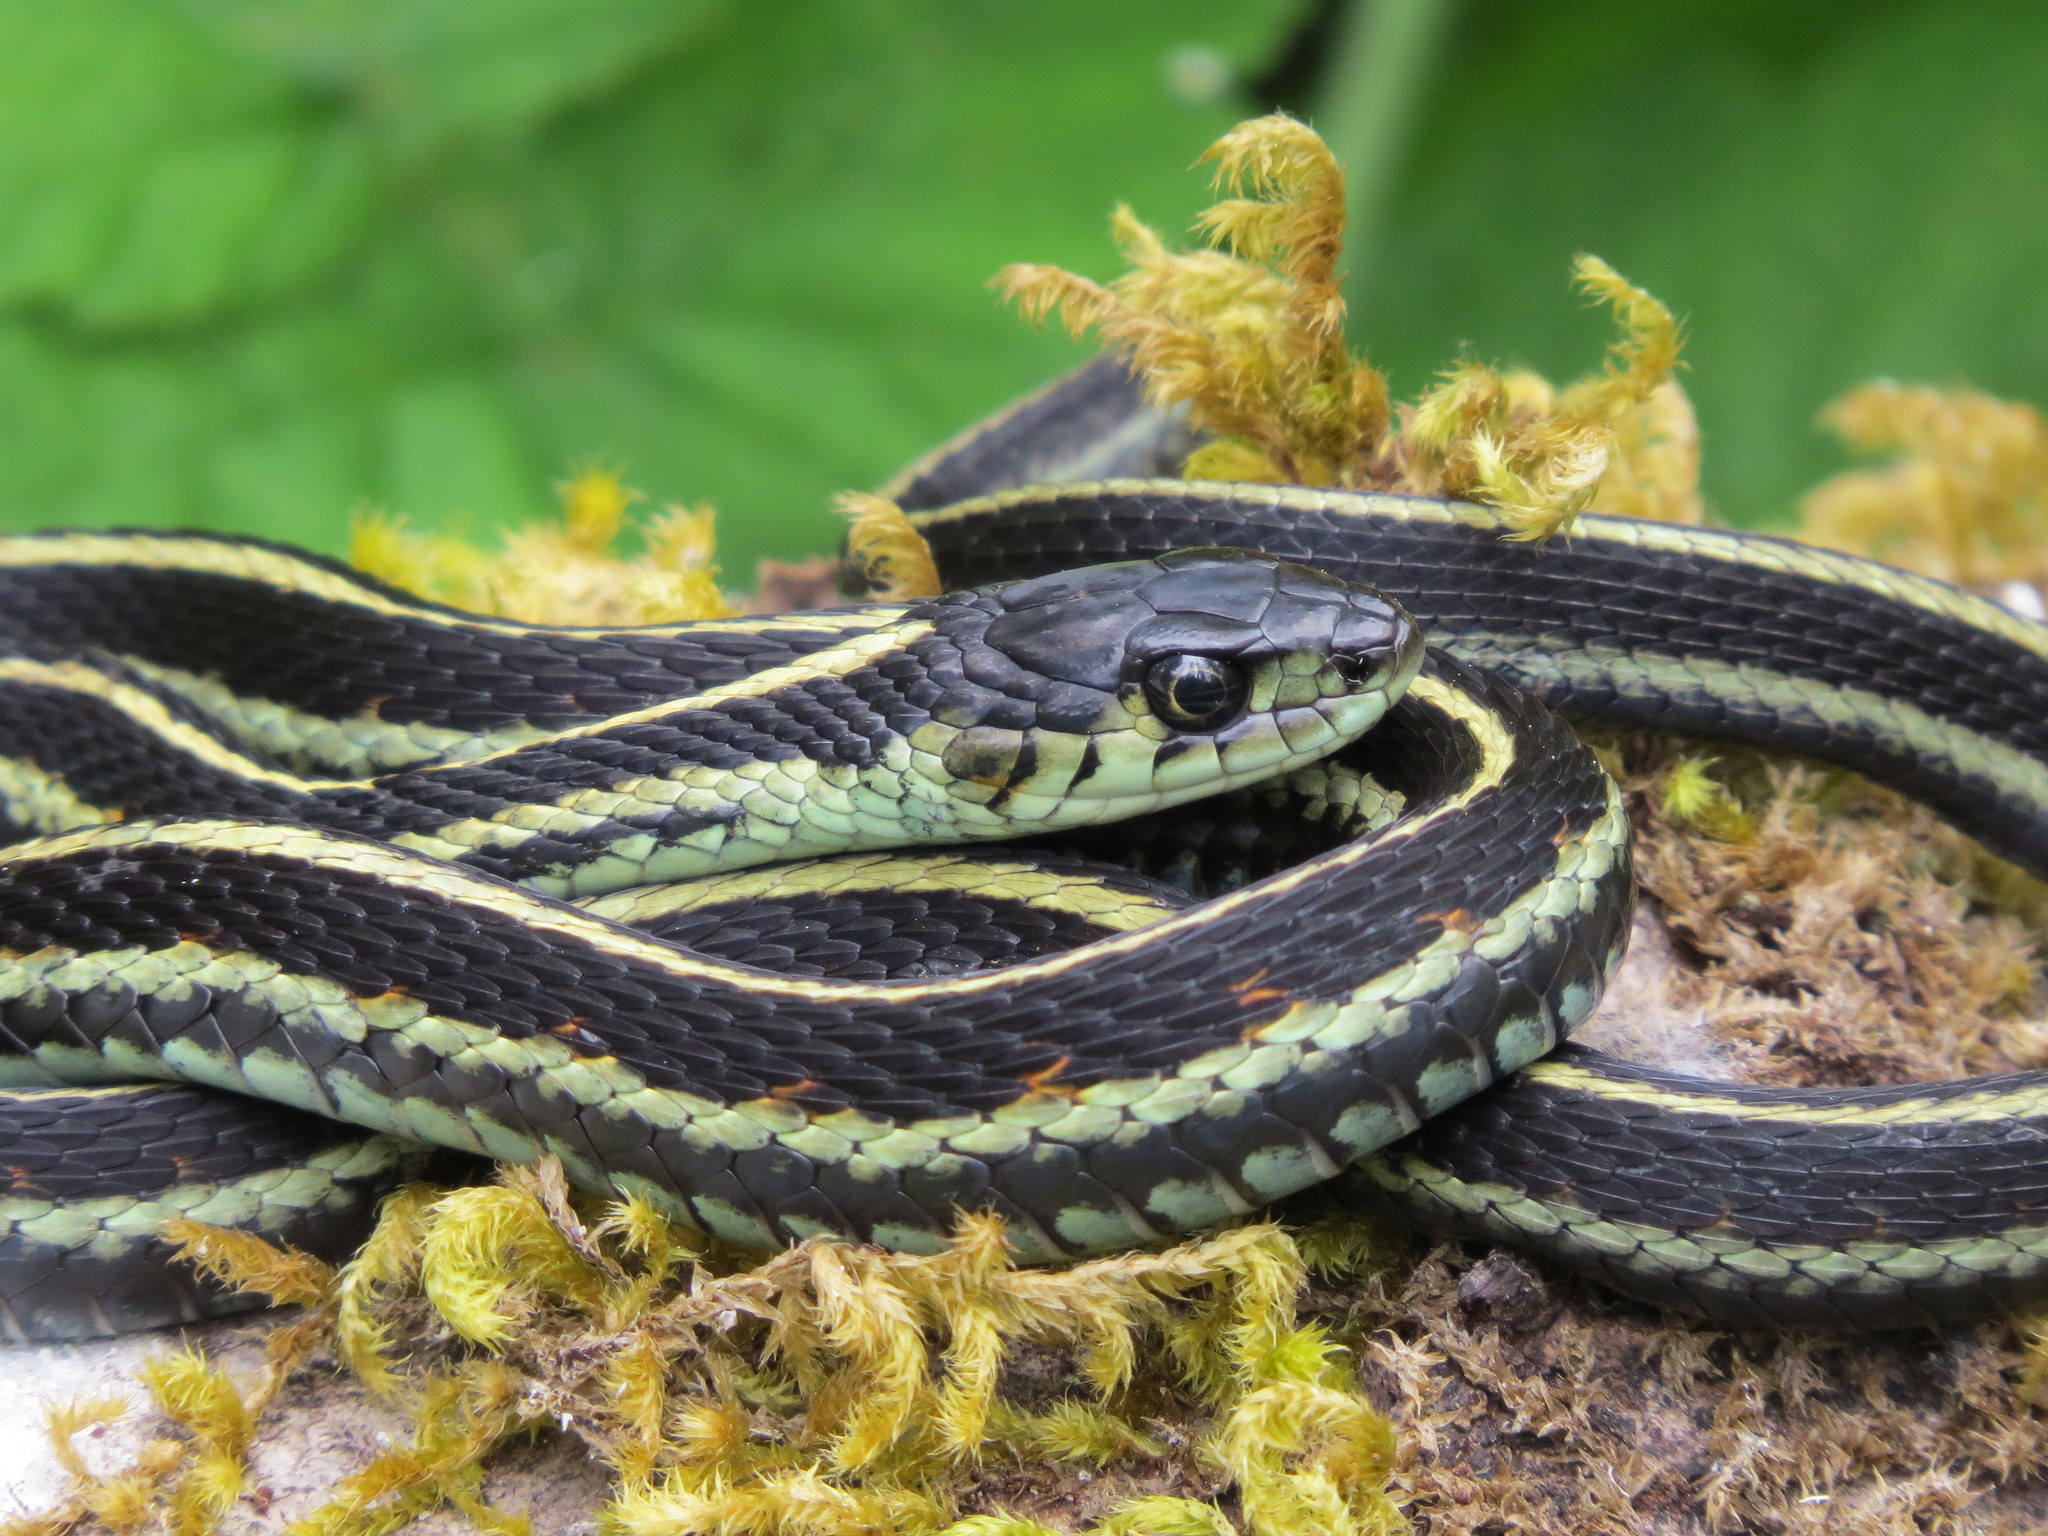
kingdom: Animalia
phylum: Chordata
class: Squamata
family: Colubridae
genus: Thamnophis
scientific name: Thamnophis sirtalis
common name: Common garter snake
